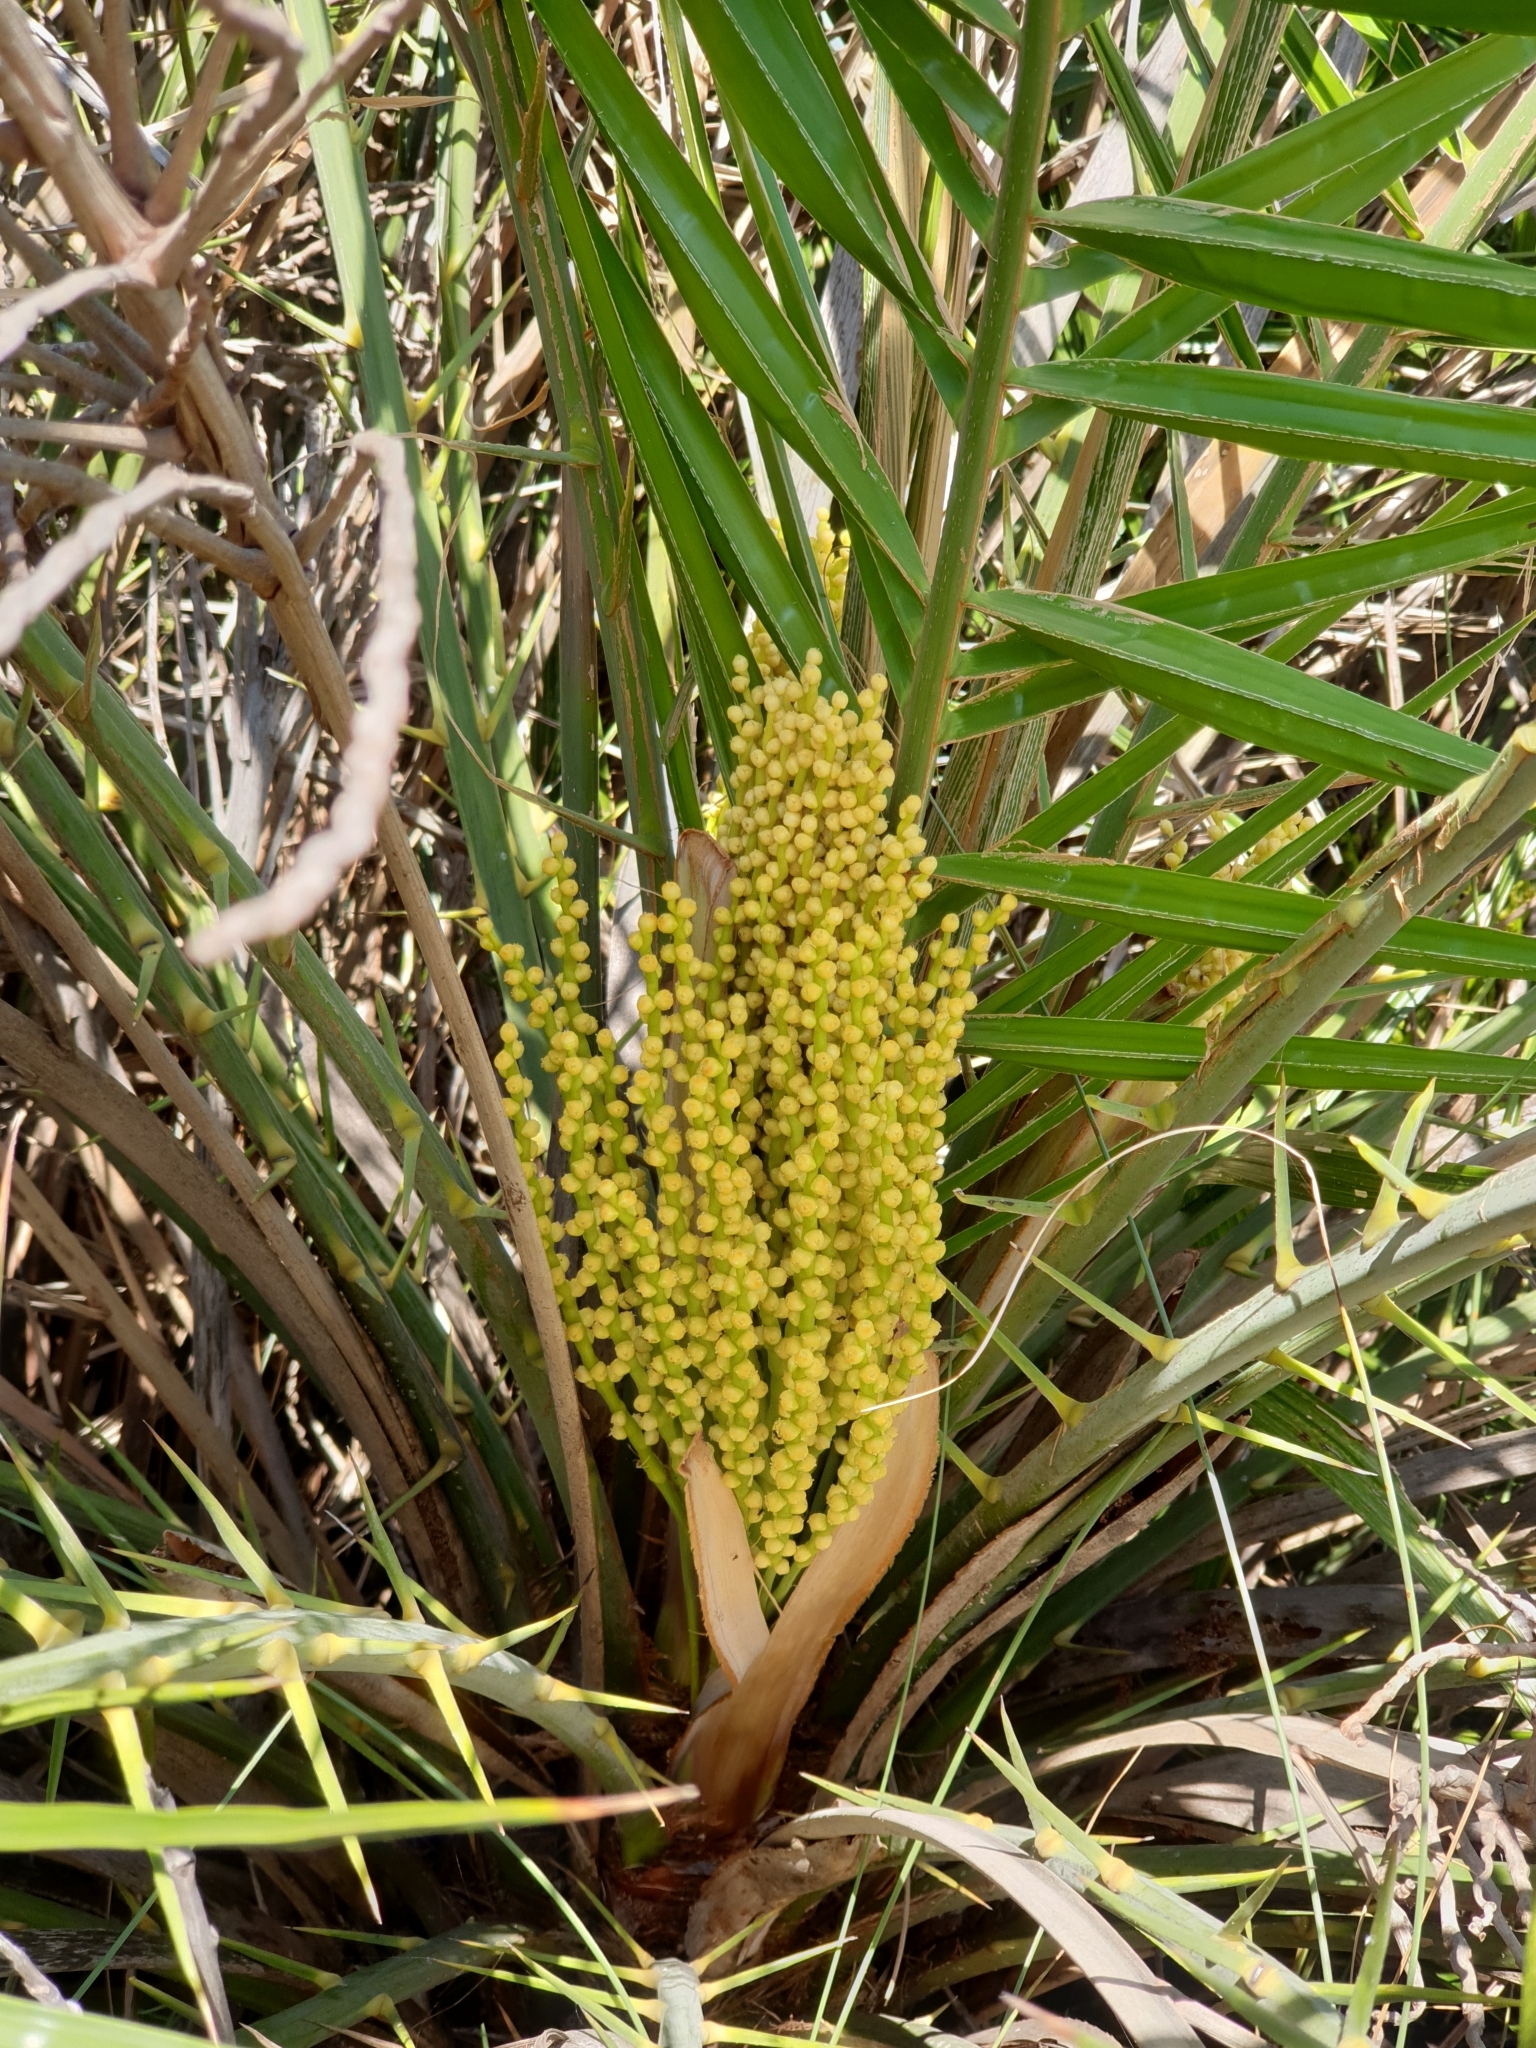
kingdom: Plantae
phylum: Tracheophyta
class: Liliopsida
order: Arecales
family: Arecaceae
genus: Phoenix
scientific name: Phoenix pusilla
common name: Flour palm
